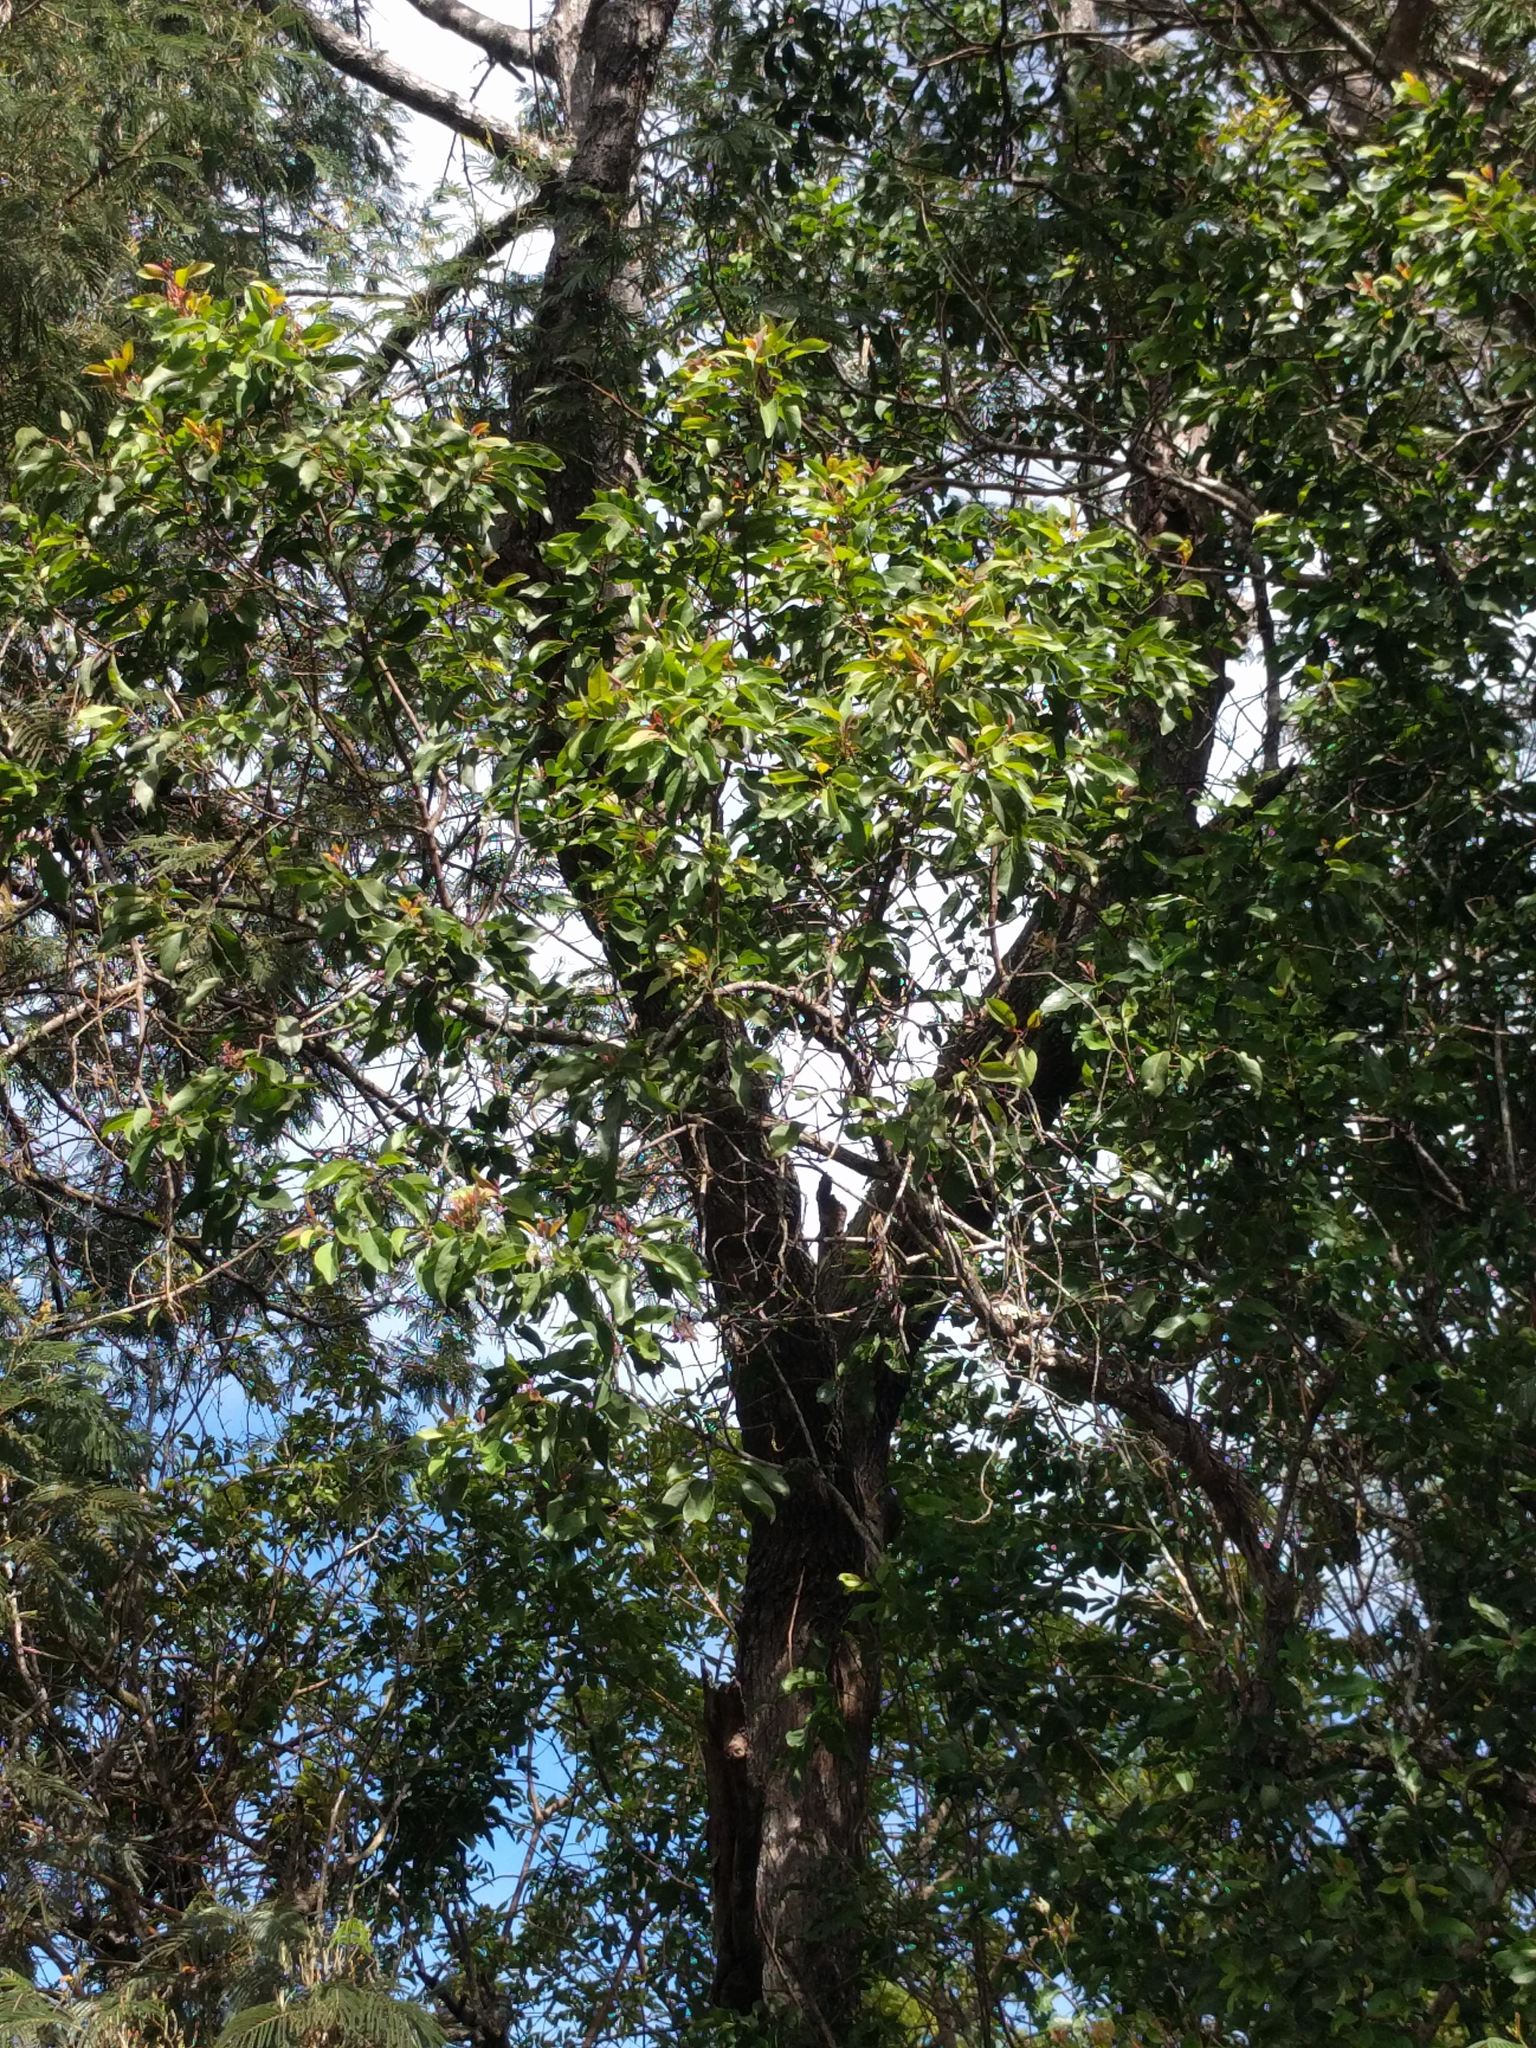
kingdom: Plantae
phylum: Tracheophyta
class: Magnoliopsida
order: Santalales
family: Santalaceae
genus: Santalum
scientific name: Santalum freycinetianum
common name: Lanai sandalwood
